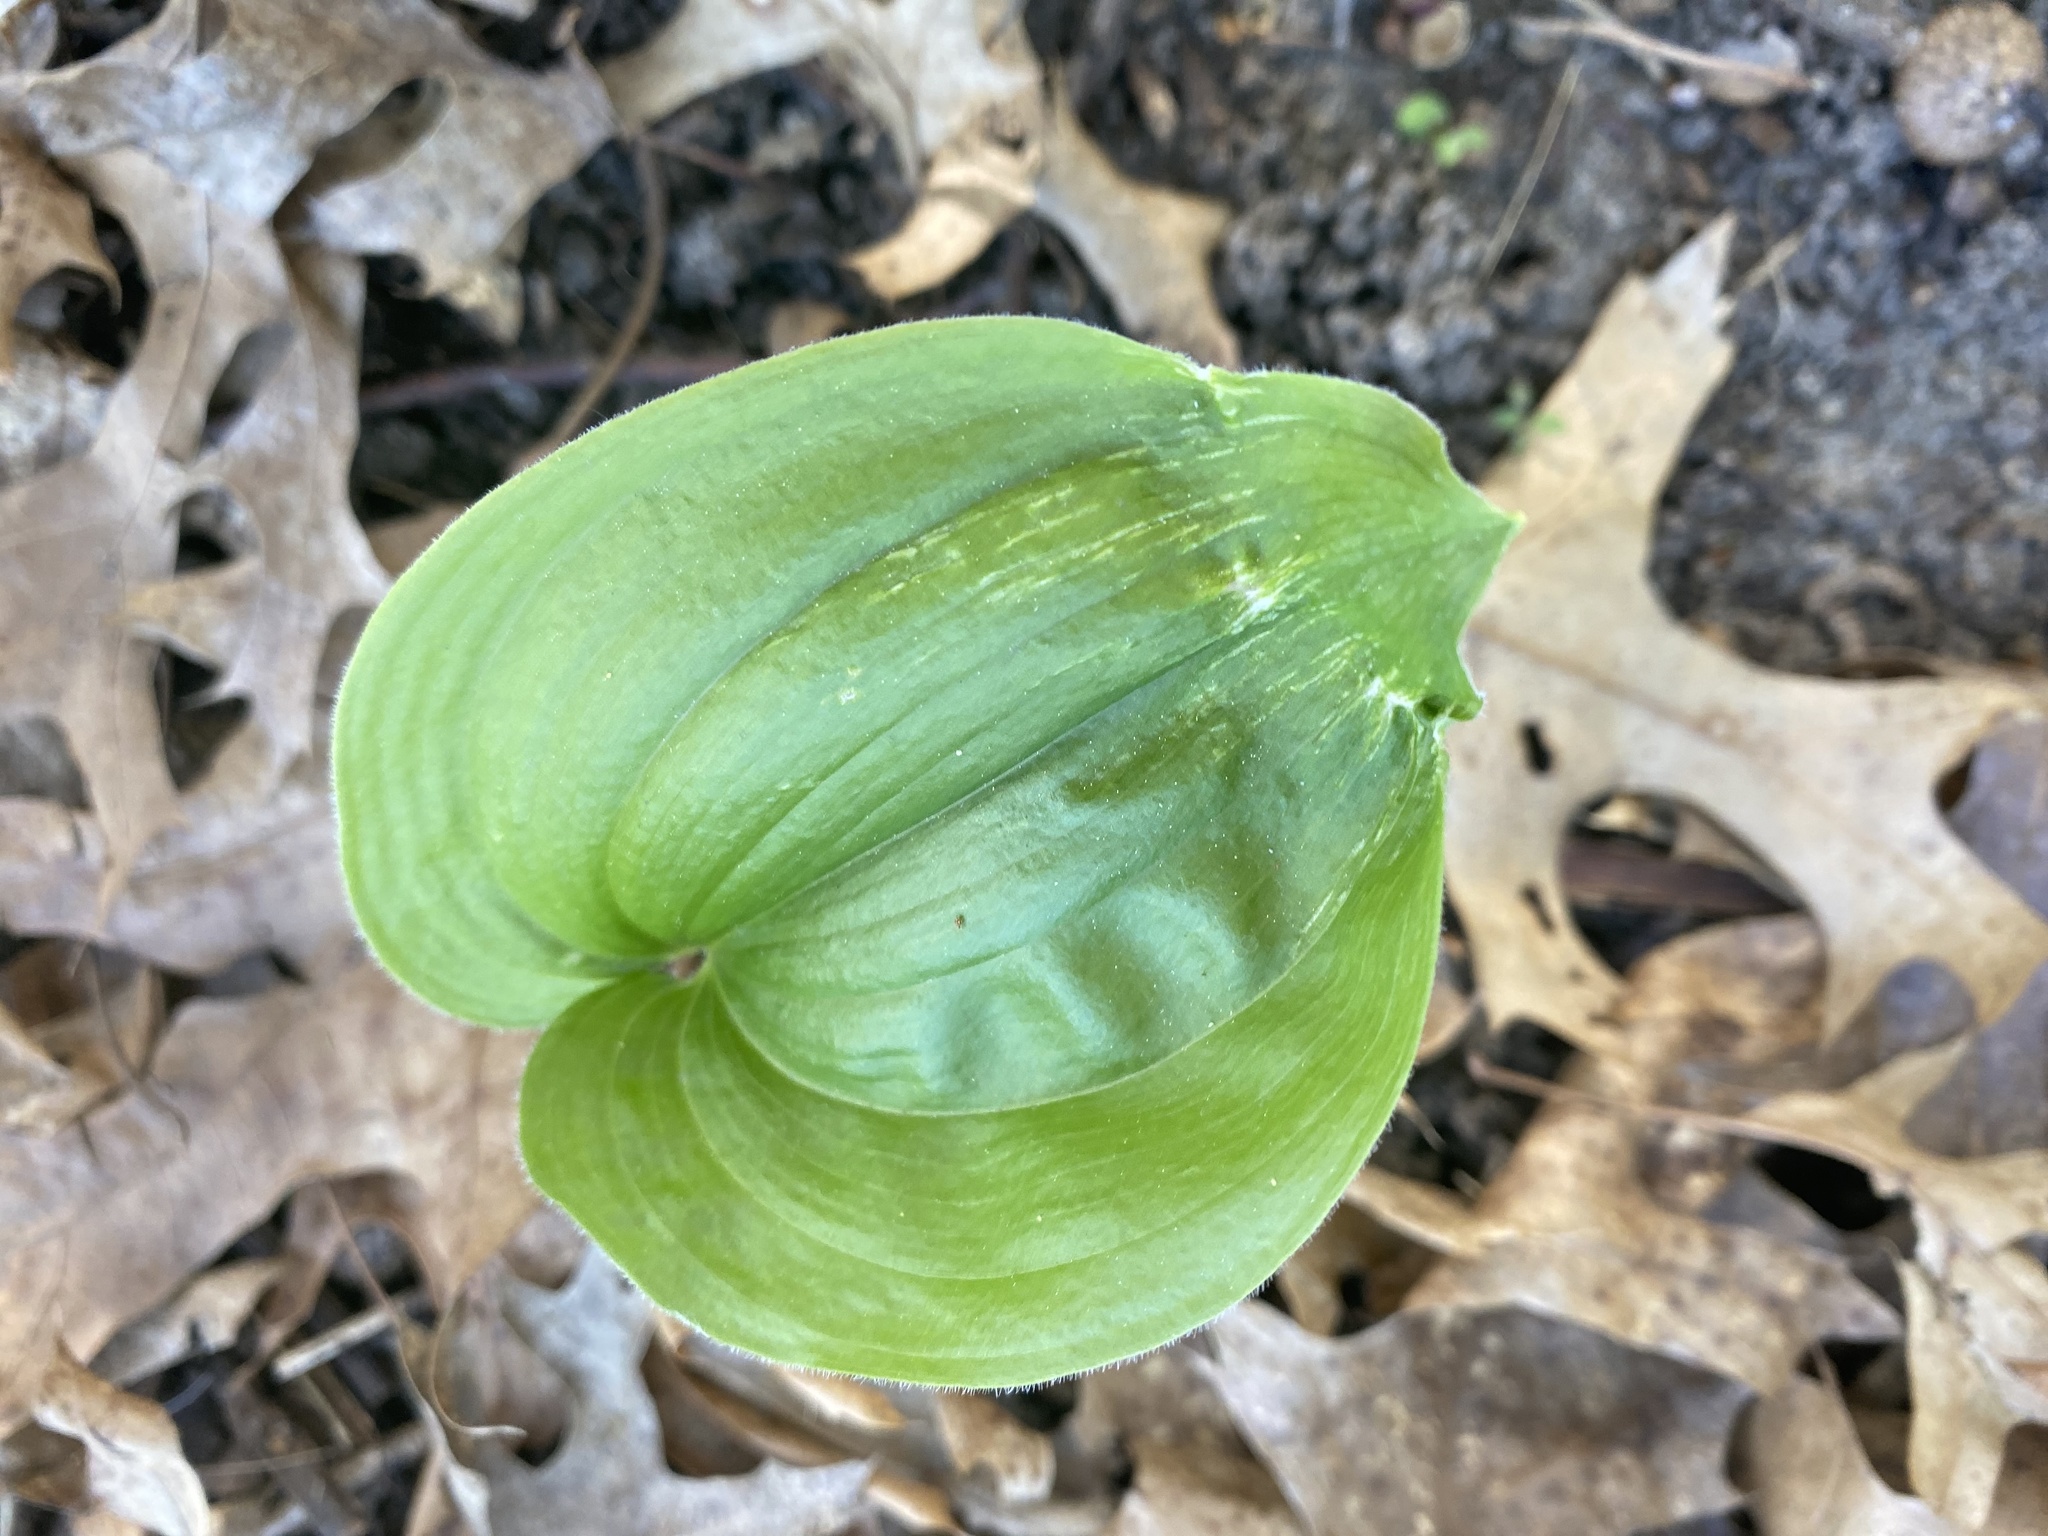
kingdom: Plantae
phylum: Tracheophyta
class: Liliopsida
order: Asparagales
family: Asparagaceae
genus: Maianthemum
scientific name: Maianthemum canadense
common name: False lily-of-the-valley
